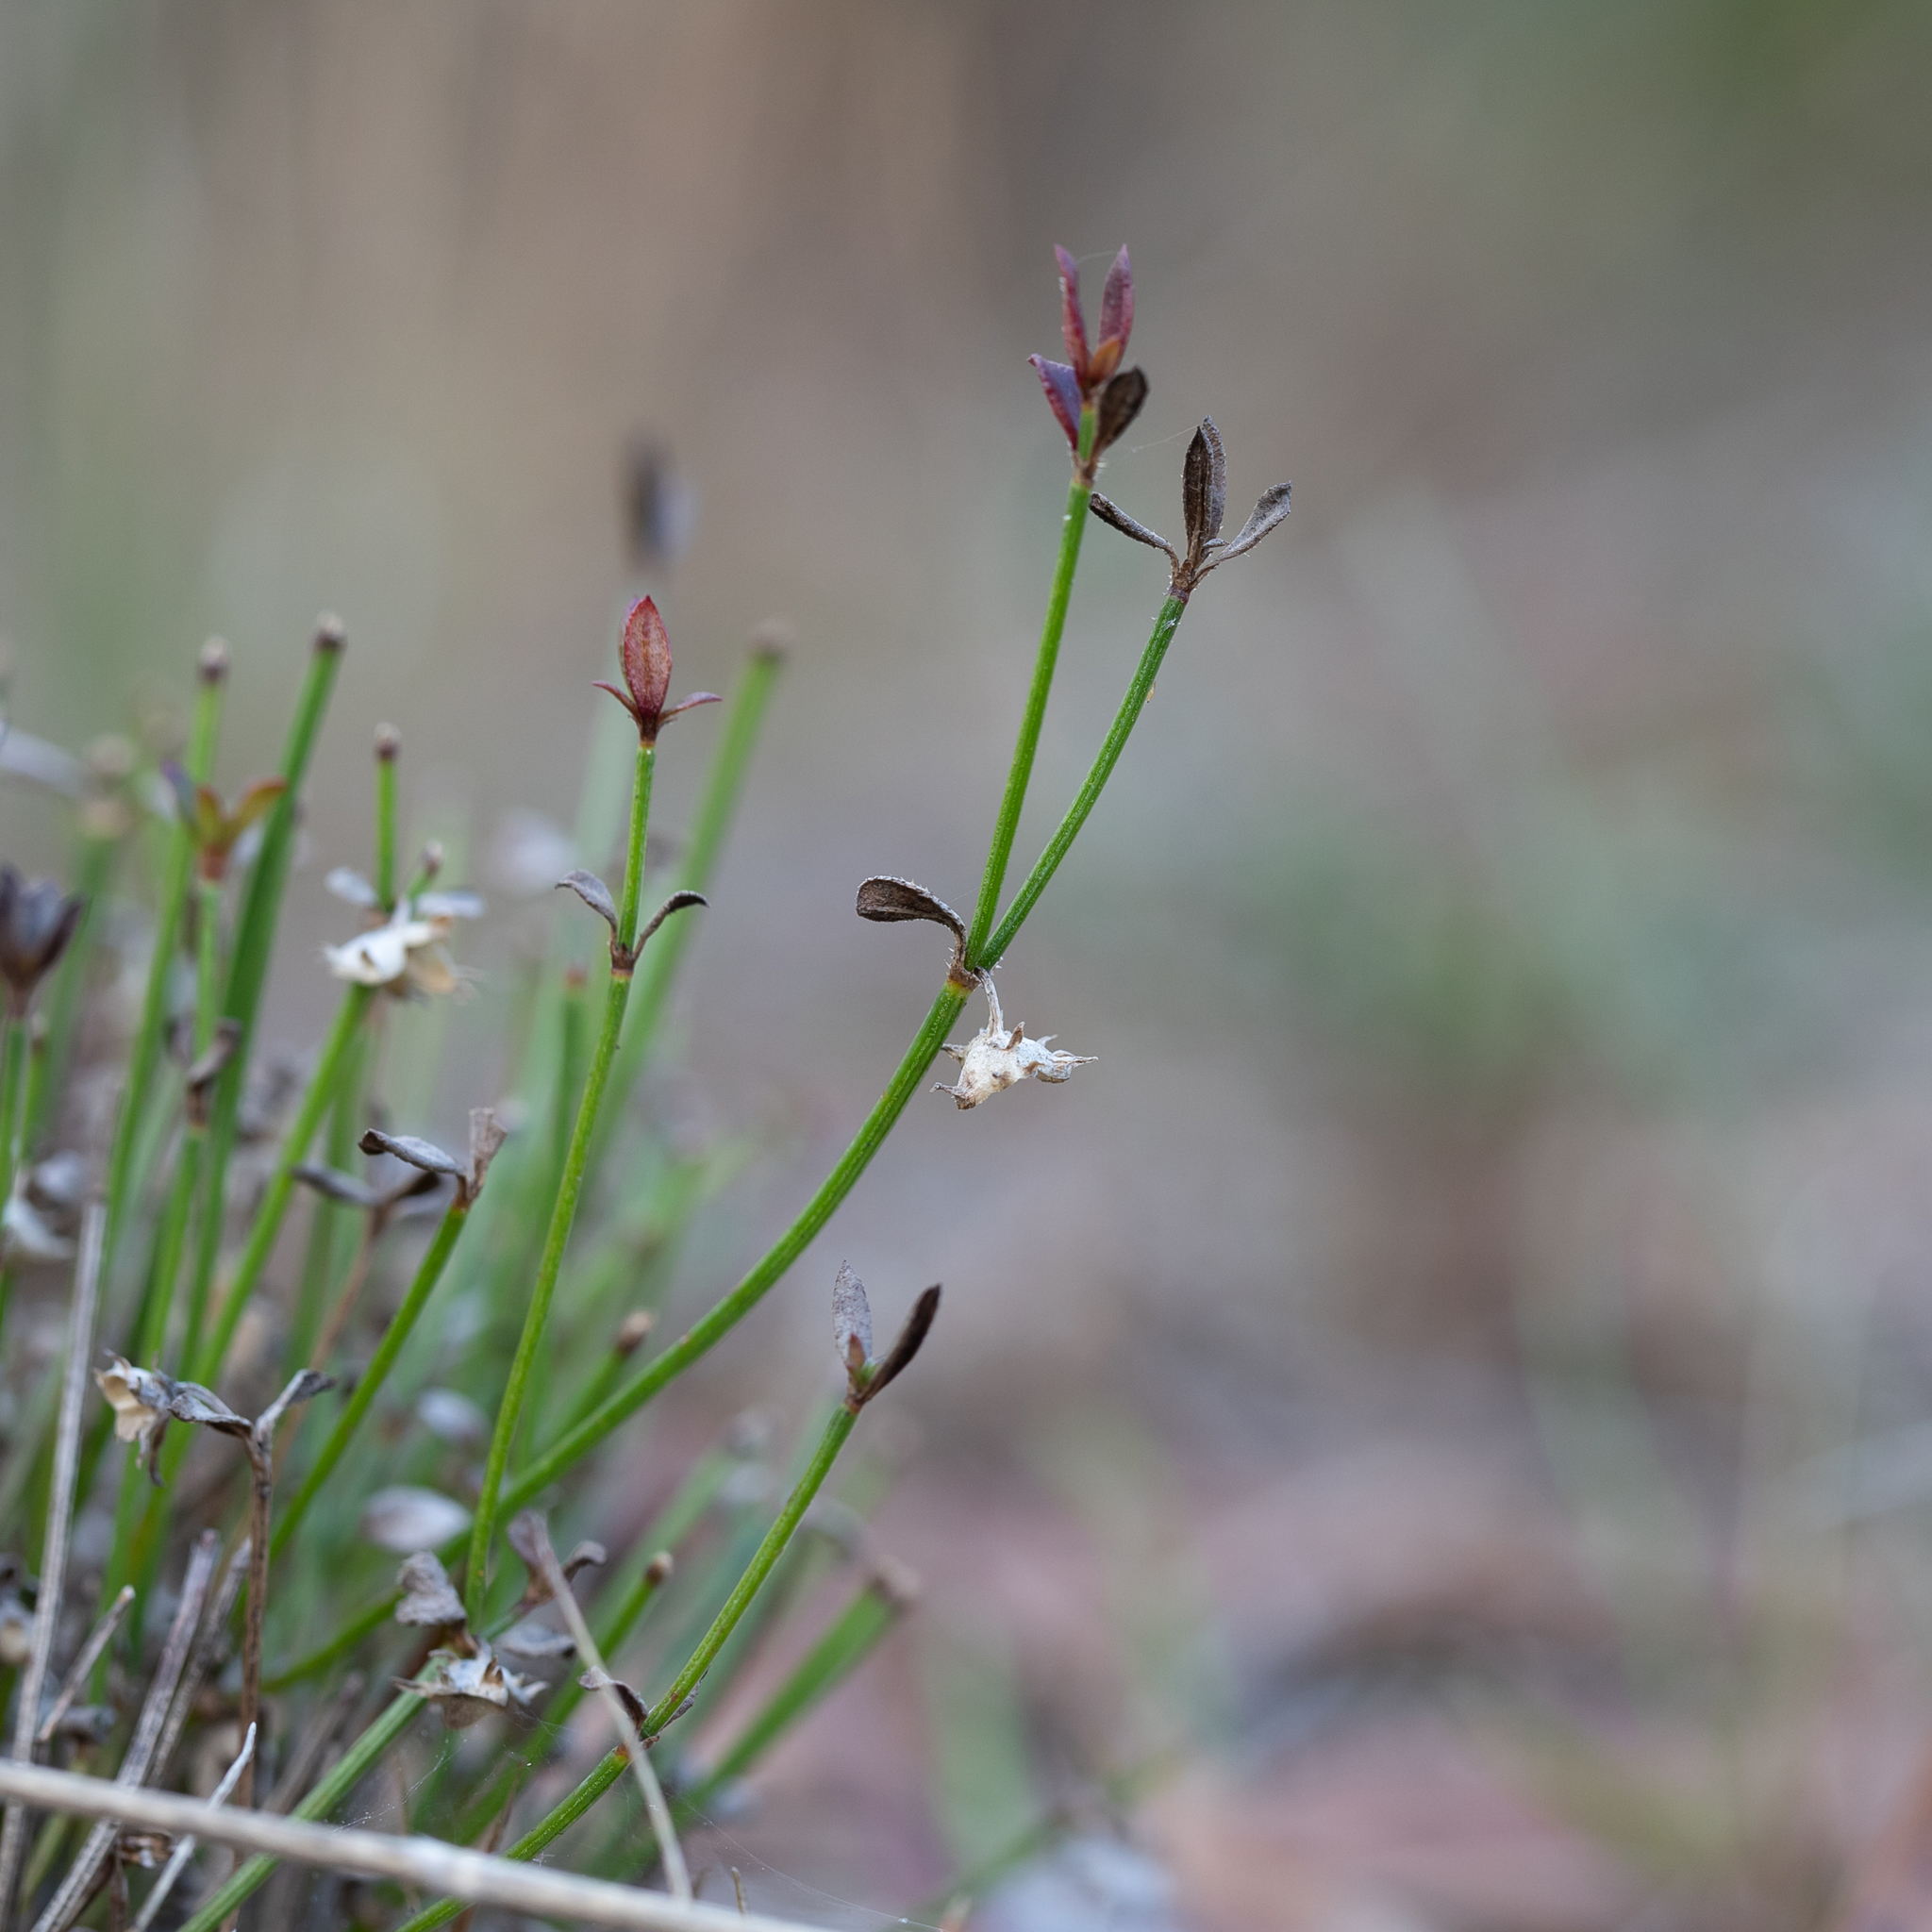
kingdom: Plantae
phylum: Tracheophyta
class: Magnoliopsida
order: Gentianales
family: Rubiaceae
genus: Opercularia
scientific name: Opercularia turpis
